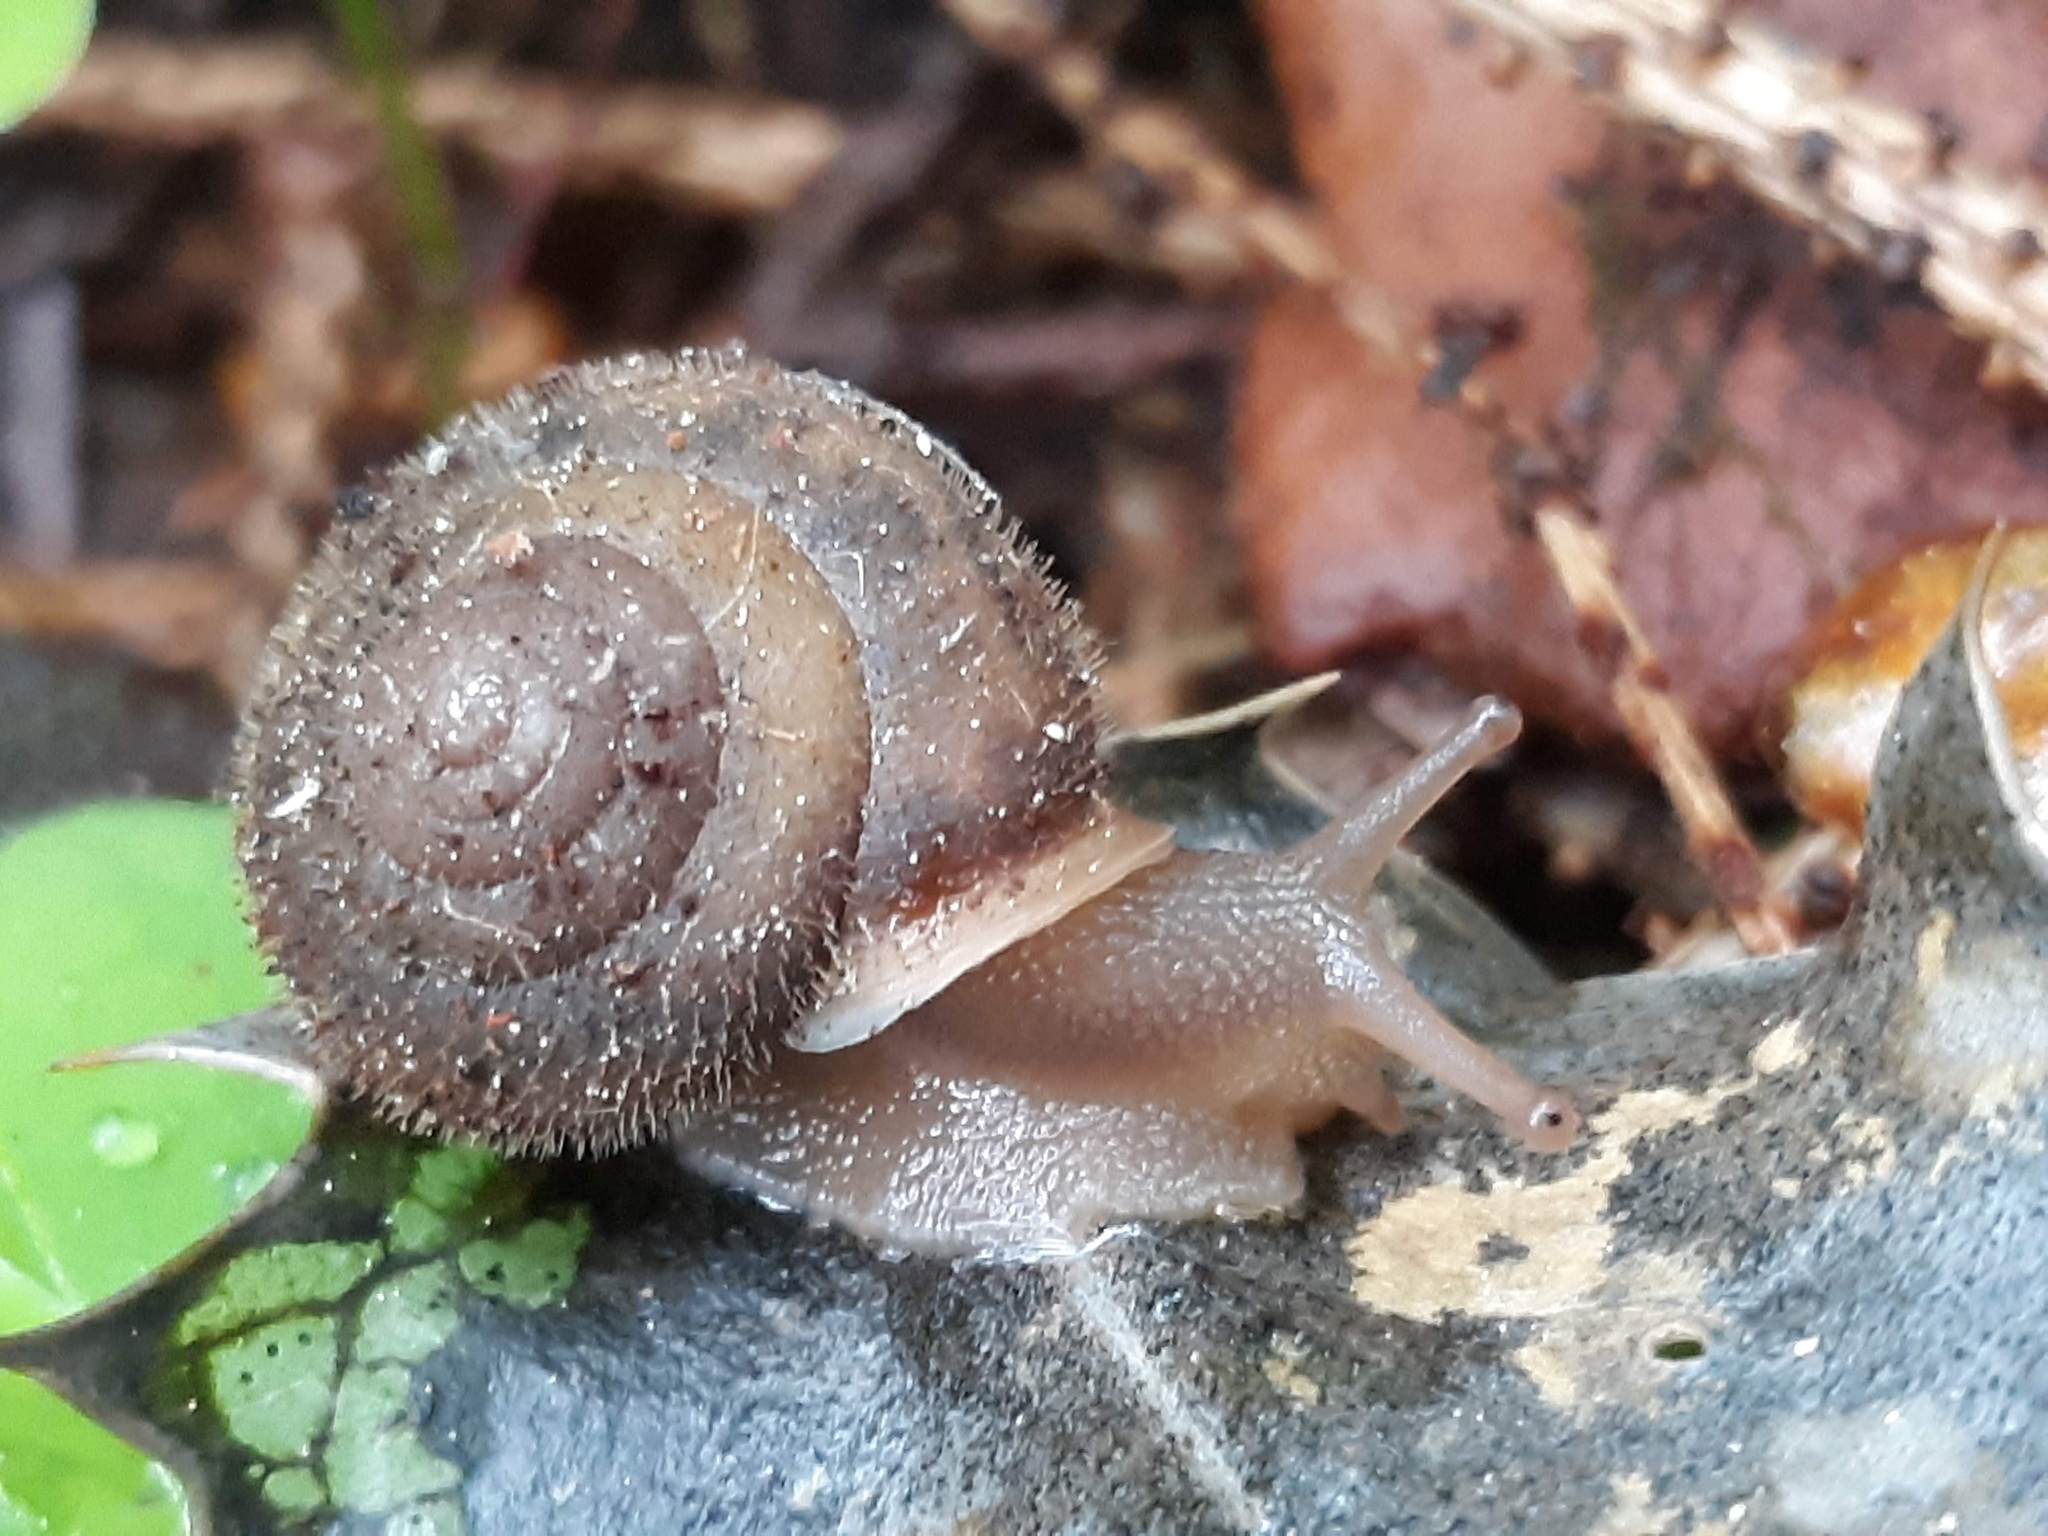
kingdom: Animalia
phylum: Mollusca
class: Gastropoda
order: Stylommatophora
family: Polygyridae
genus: Vespericola
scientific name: Vespericola columbianus
